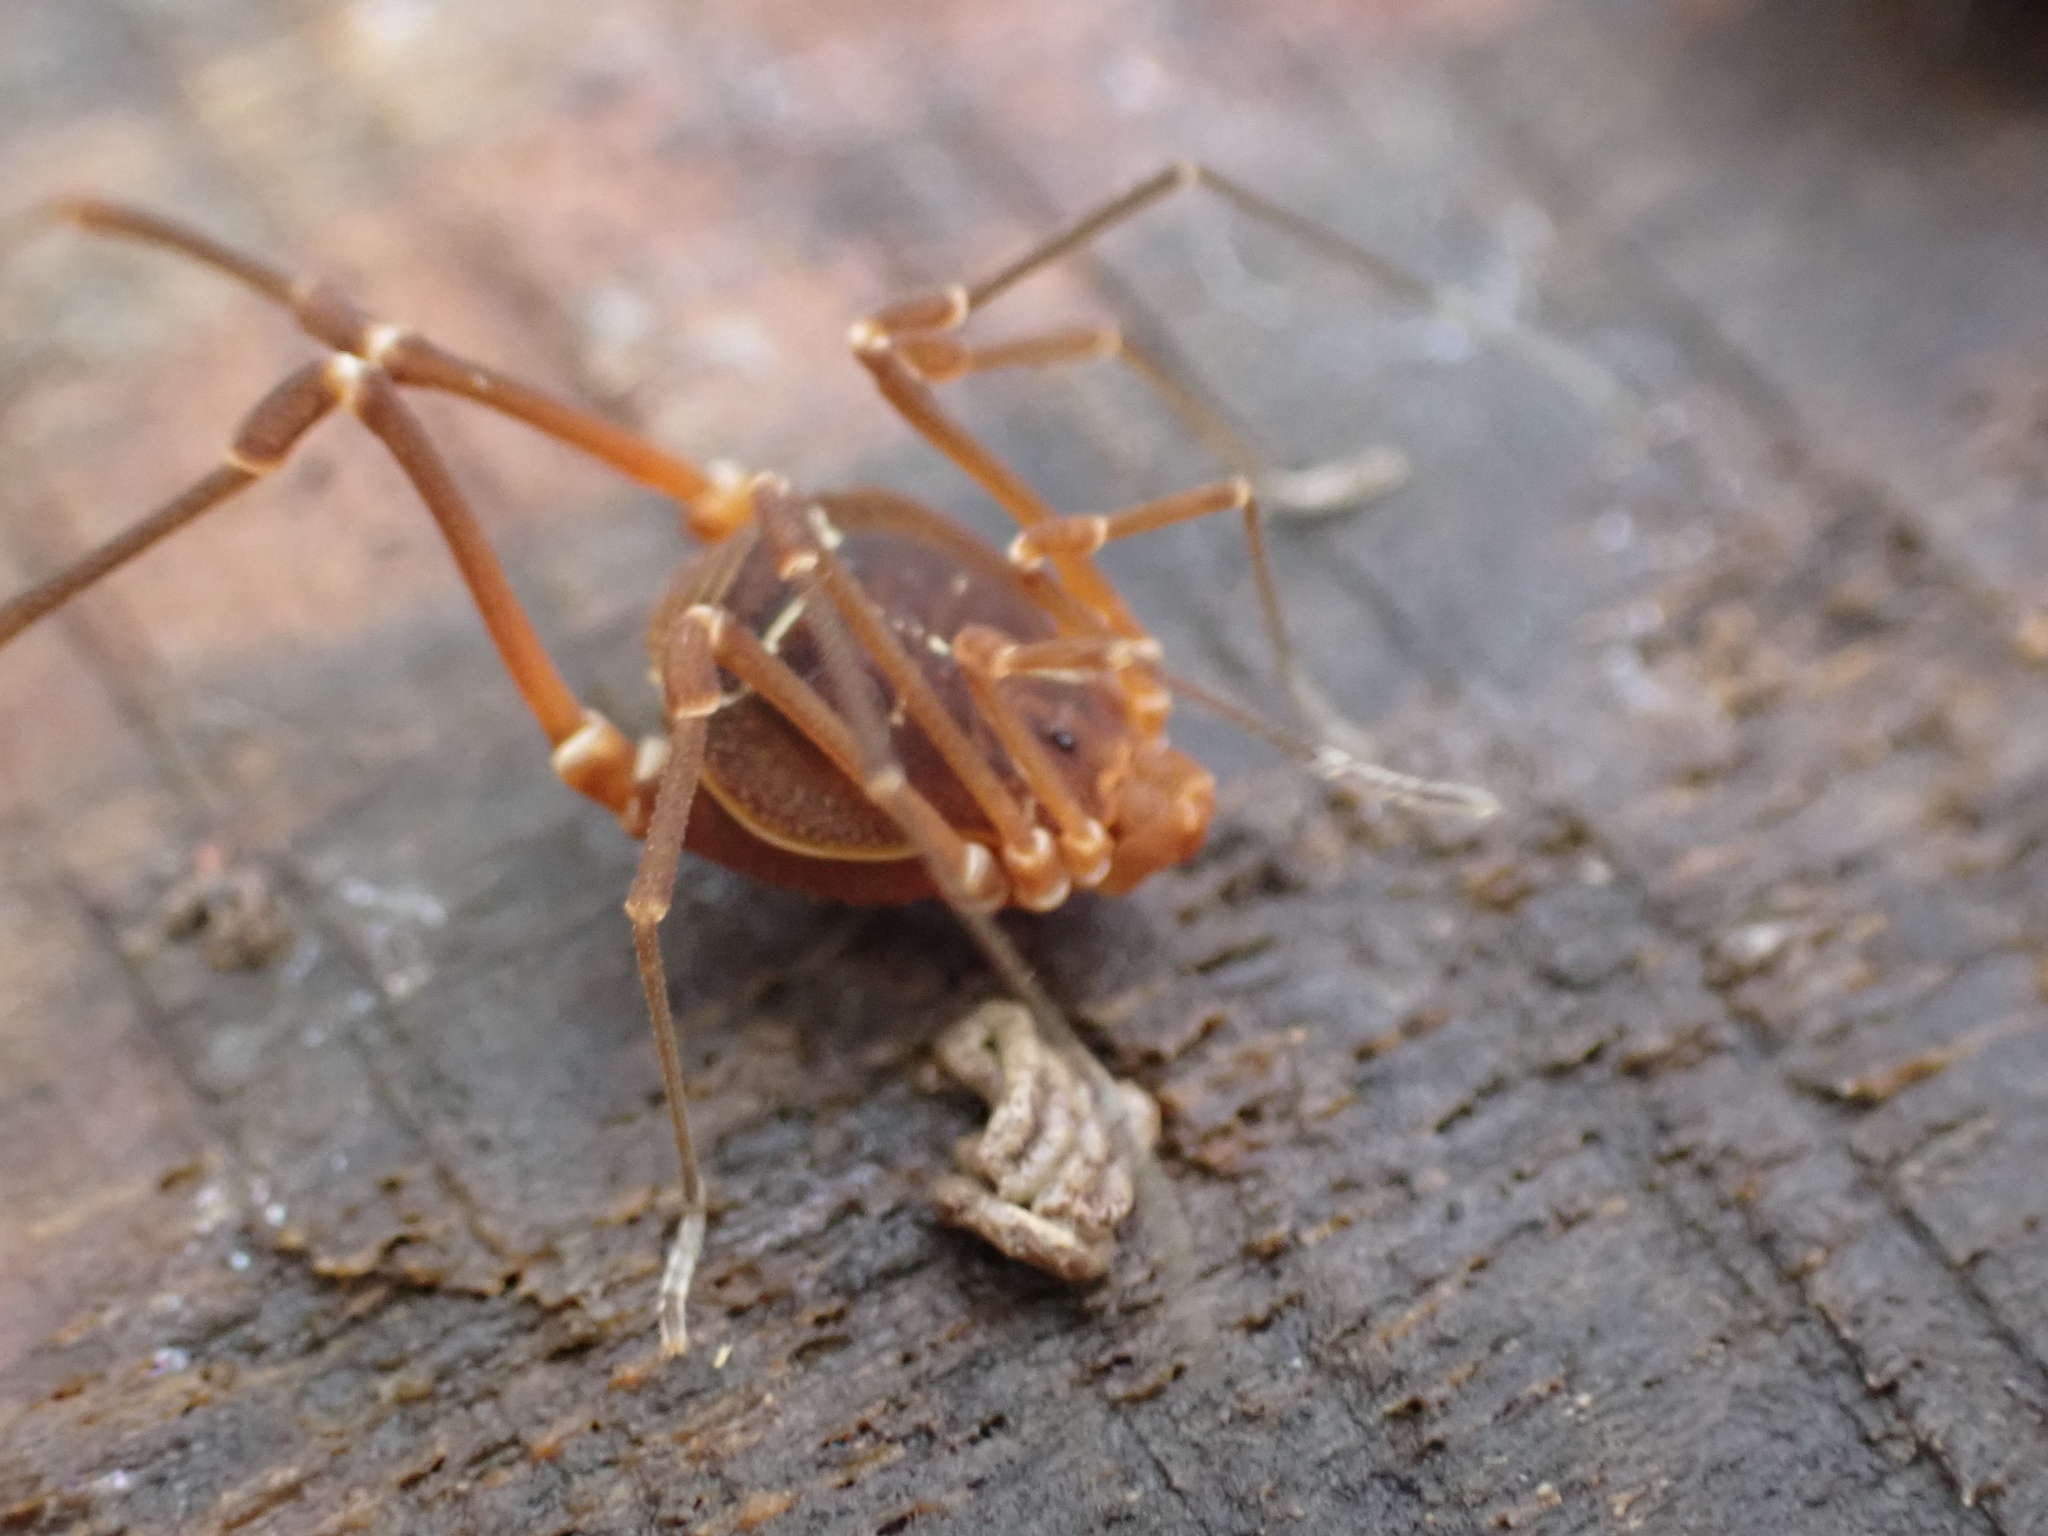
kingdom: Animalia
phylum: Arthropoda
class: Arachnida
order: Opiliones
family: Cosmetidae
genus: Libitioides
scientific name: Libitioides sayi
